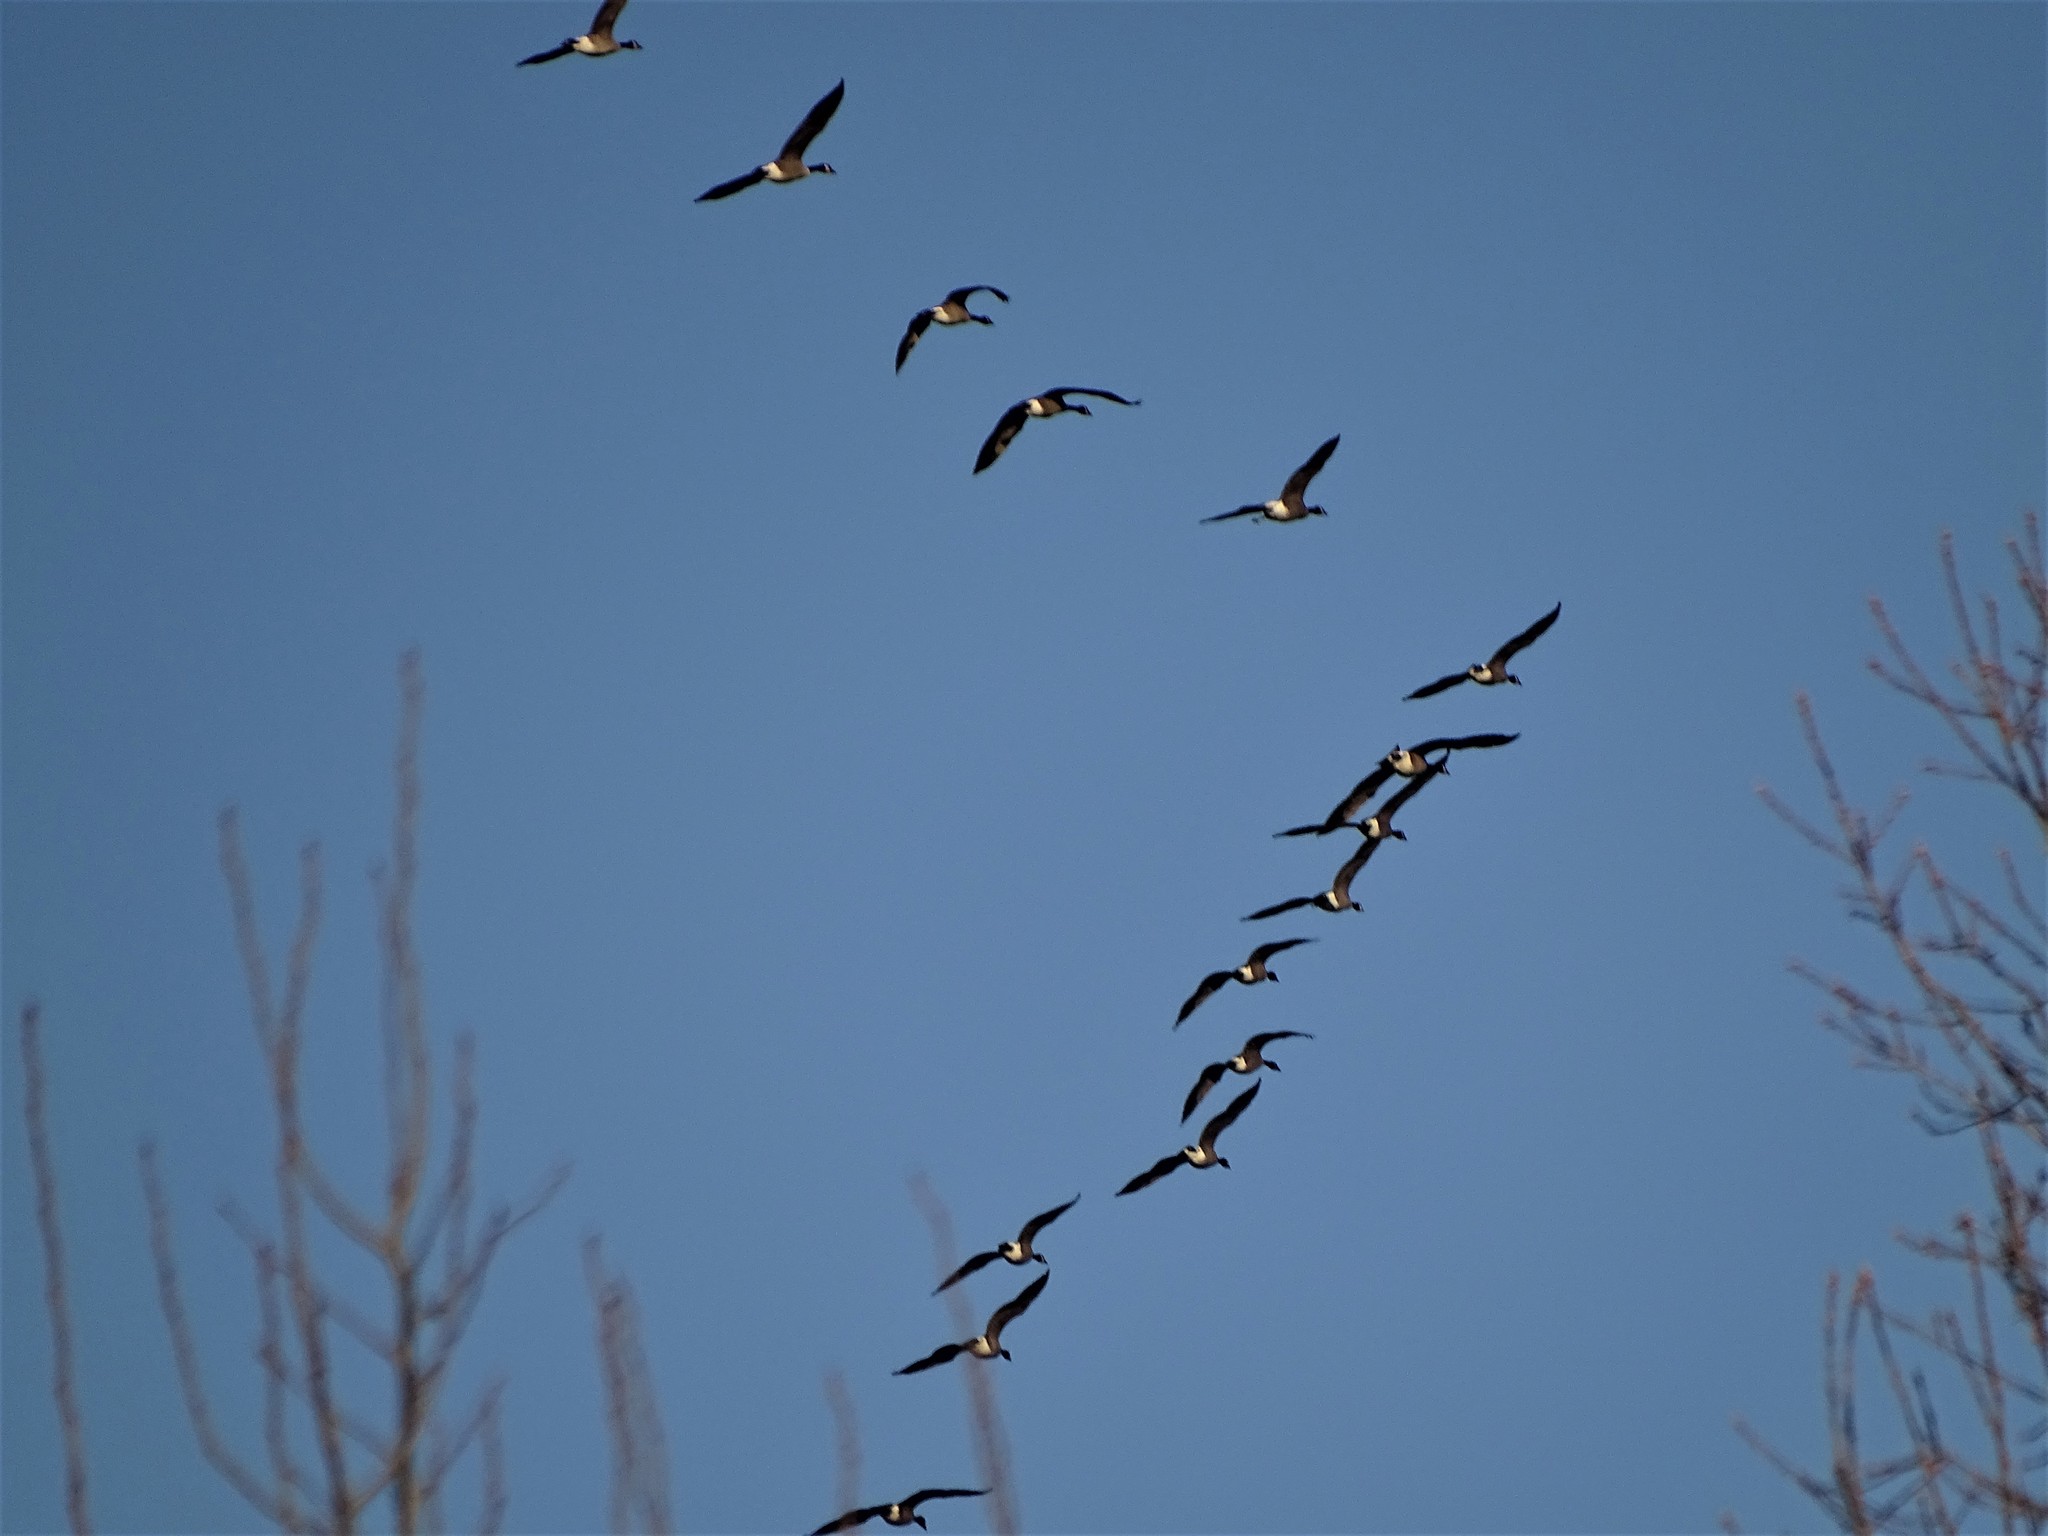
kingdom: Animalia
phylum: Chordata
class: Aves
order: Anseriformes
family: Anatidae
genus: Branta
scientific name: Branta canadensis
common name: Canada goose
